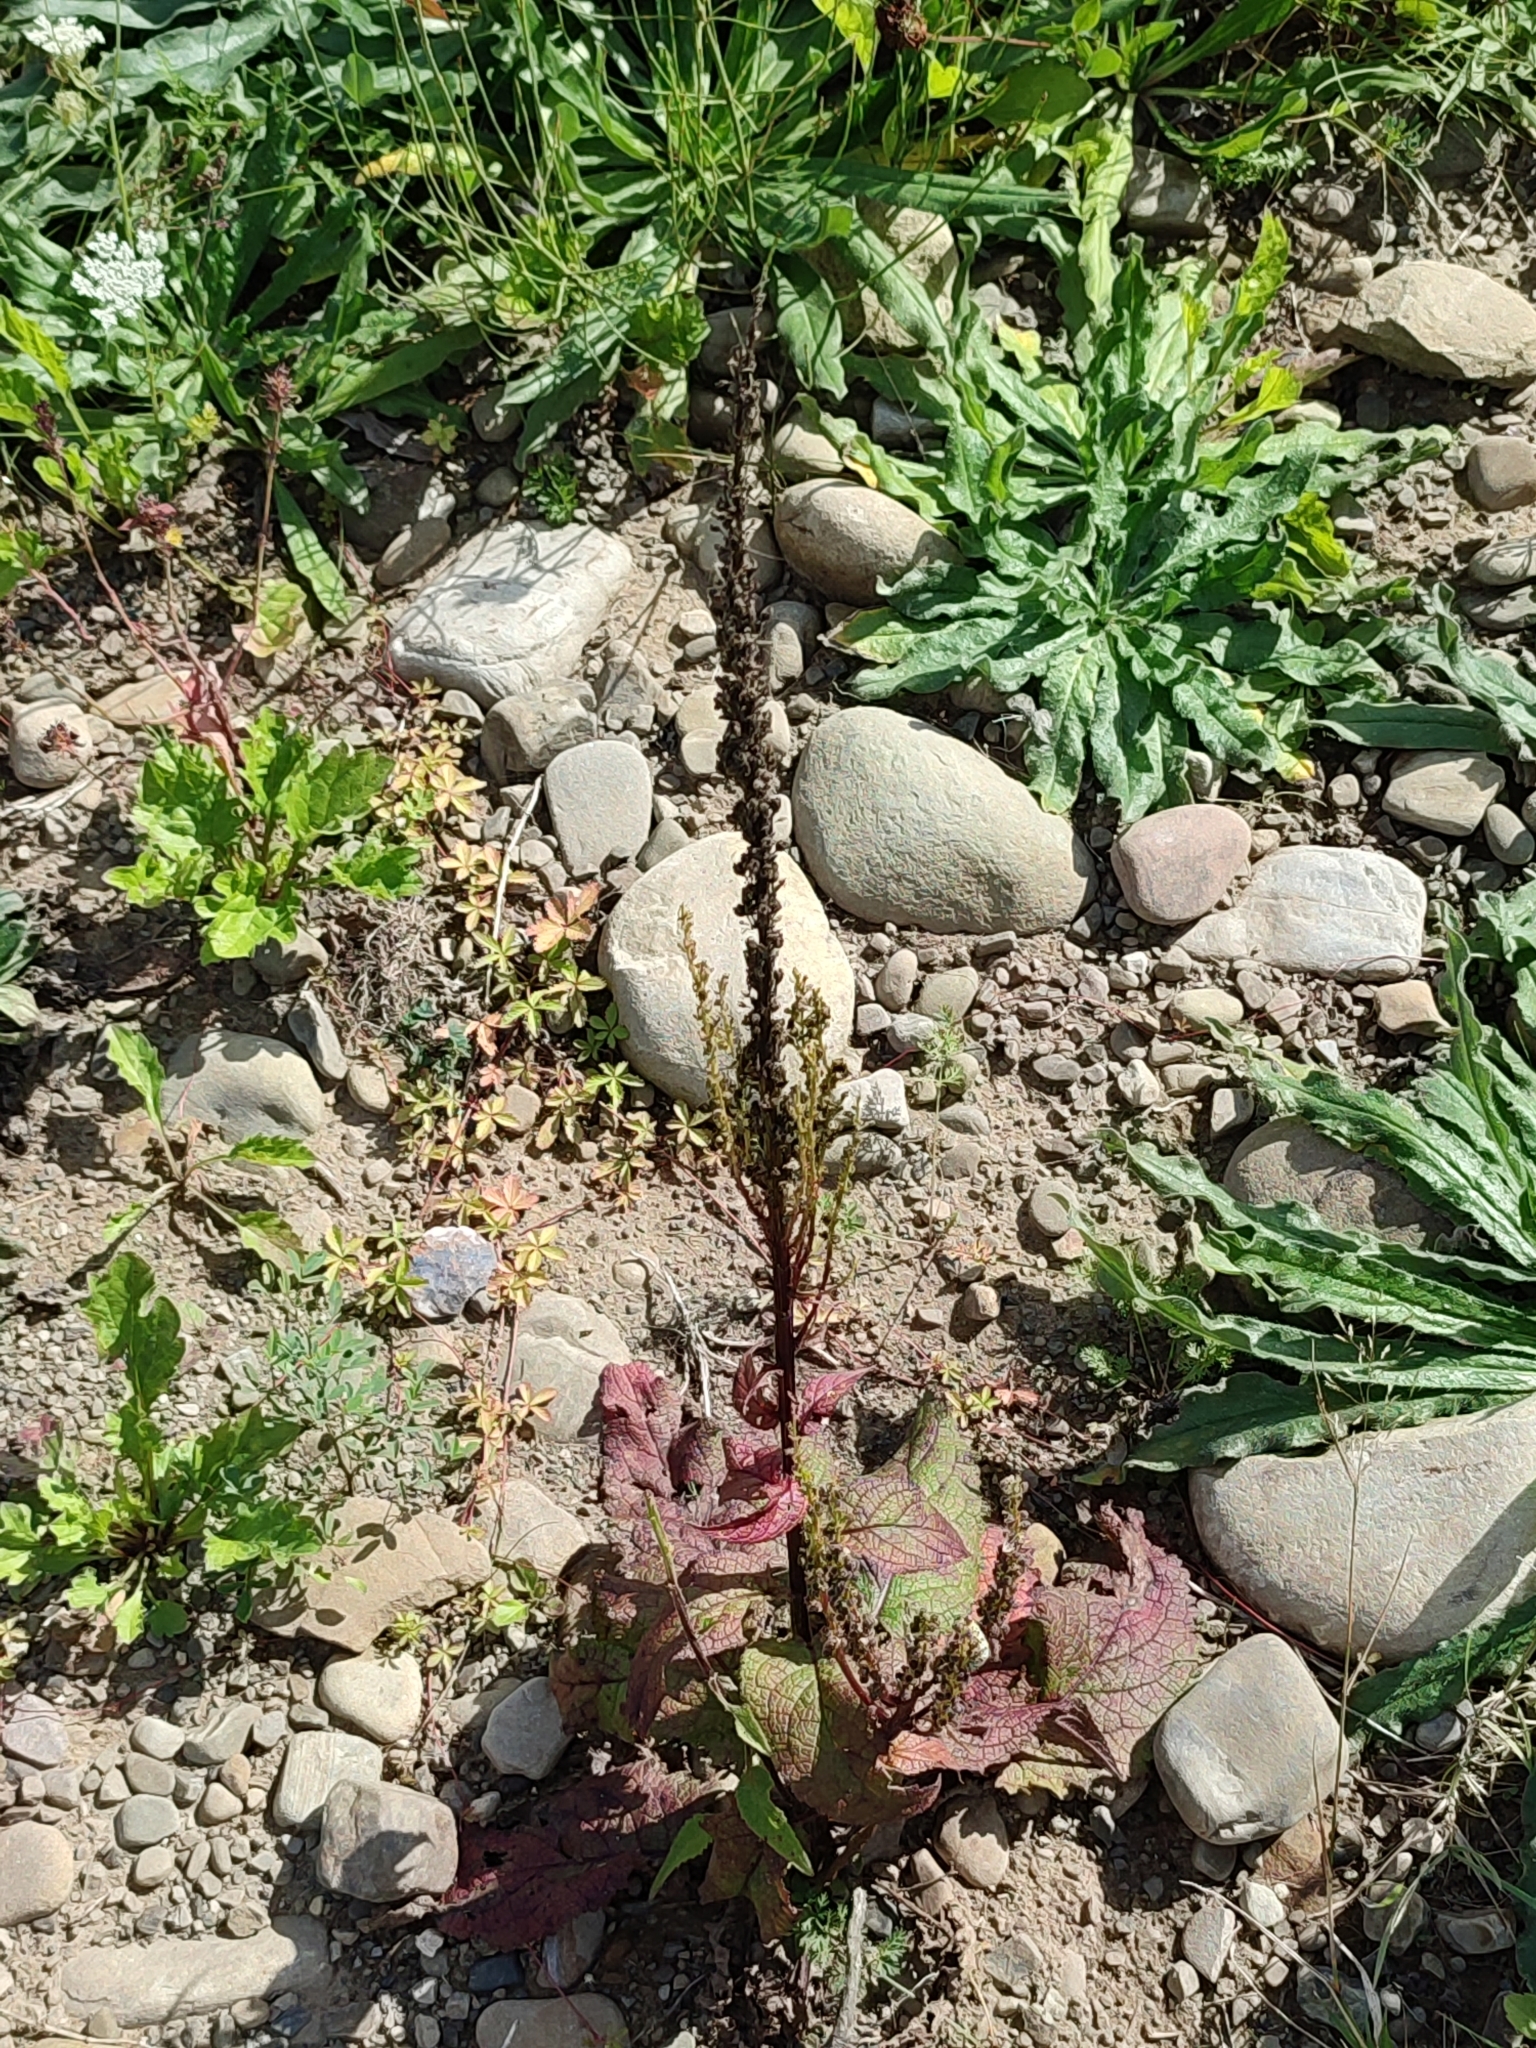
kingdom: Plantae
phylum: Tracheophyta
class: Magnoliopsida
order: Lamiales
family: Scrophulariaceae
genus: Verbascum
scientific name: Verbascum nigrum
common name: Dark mullein
